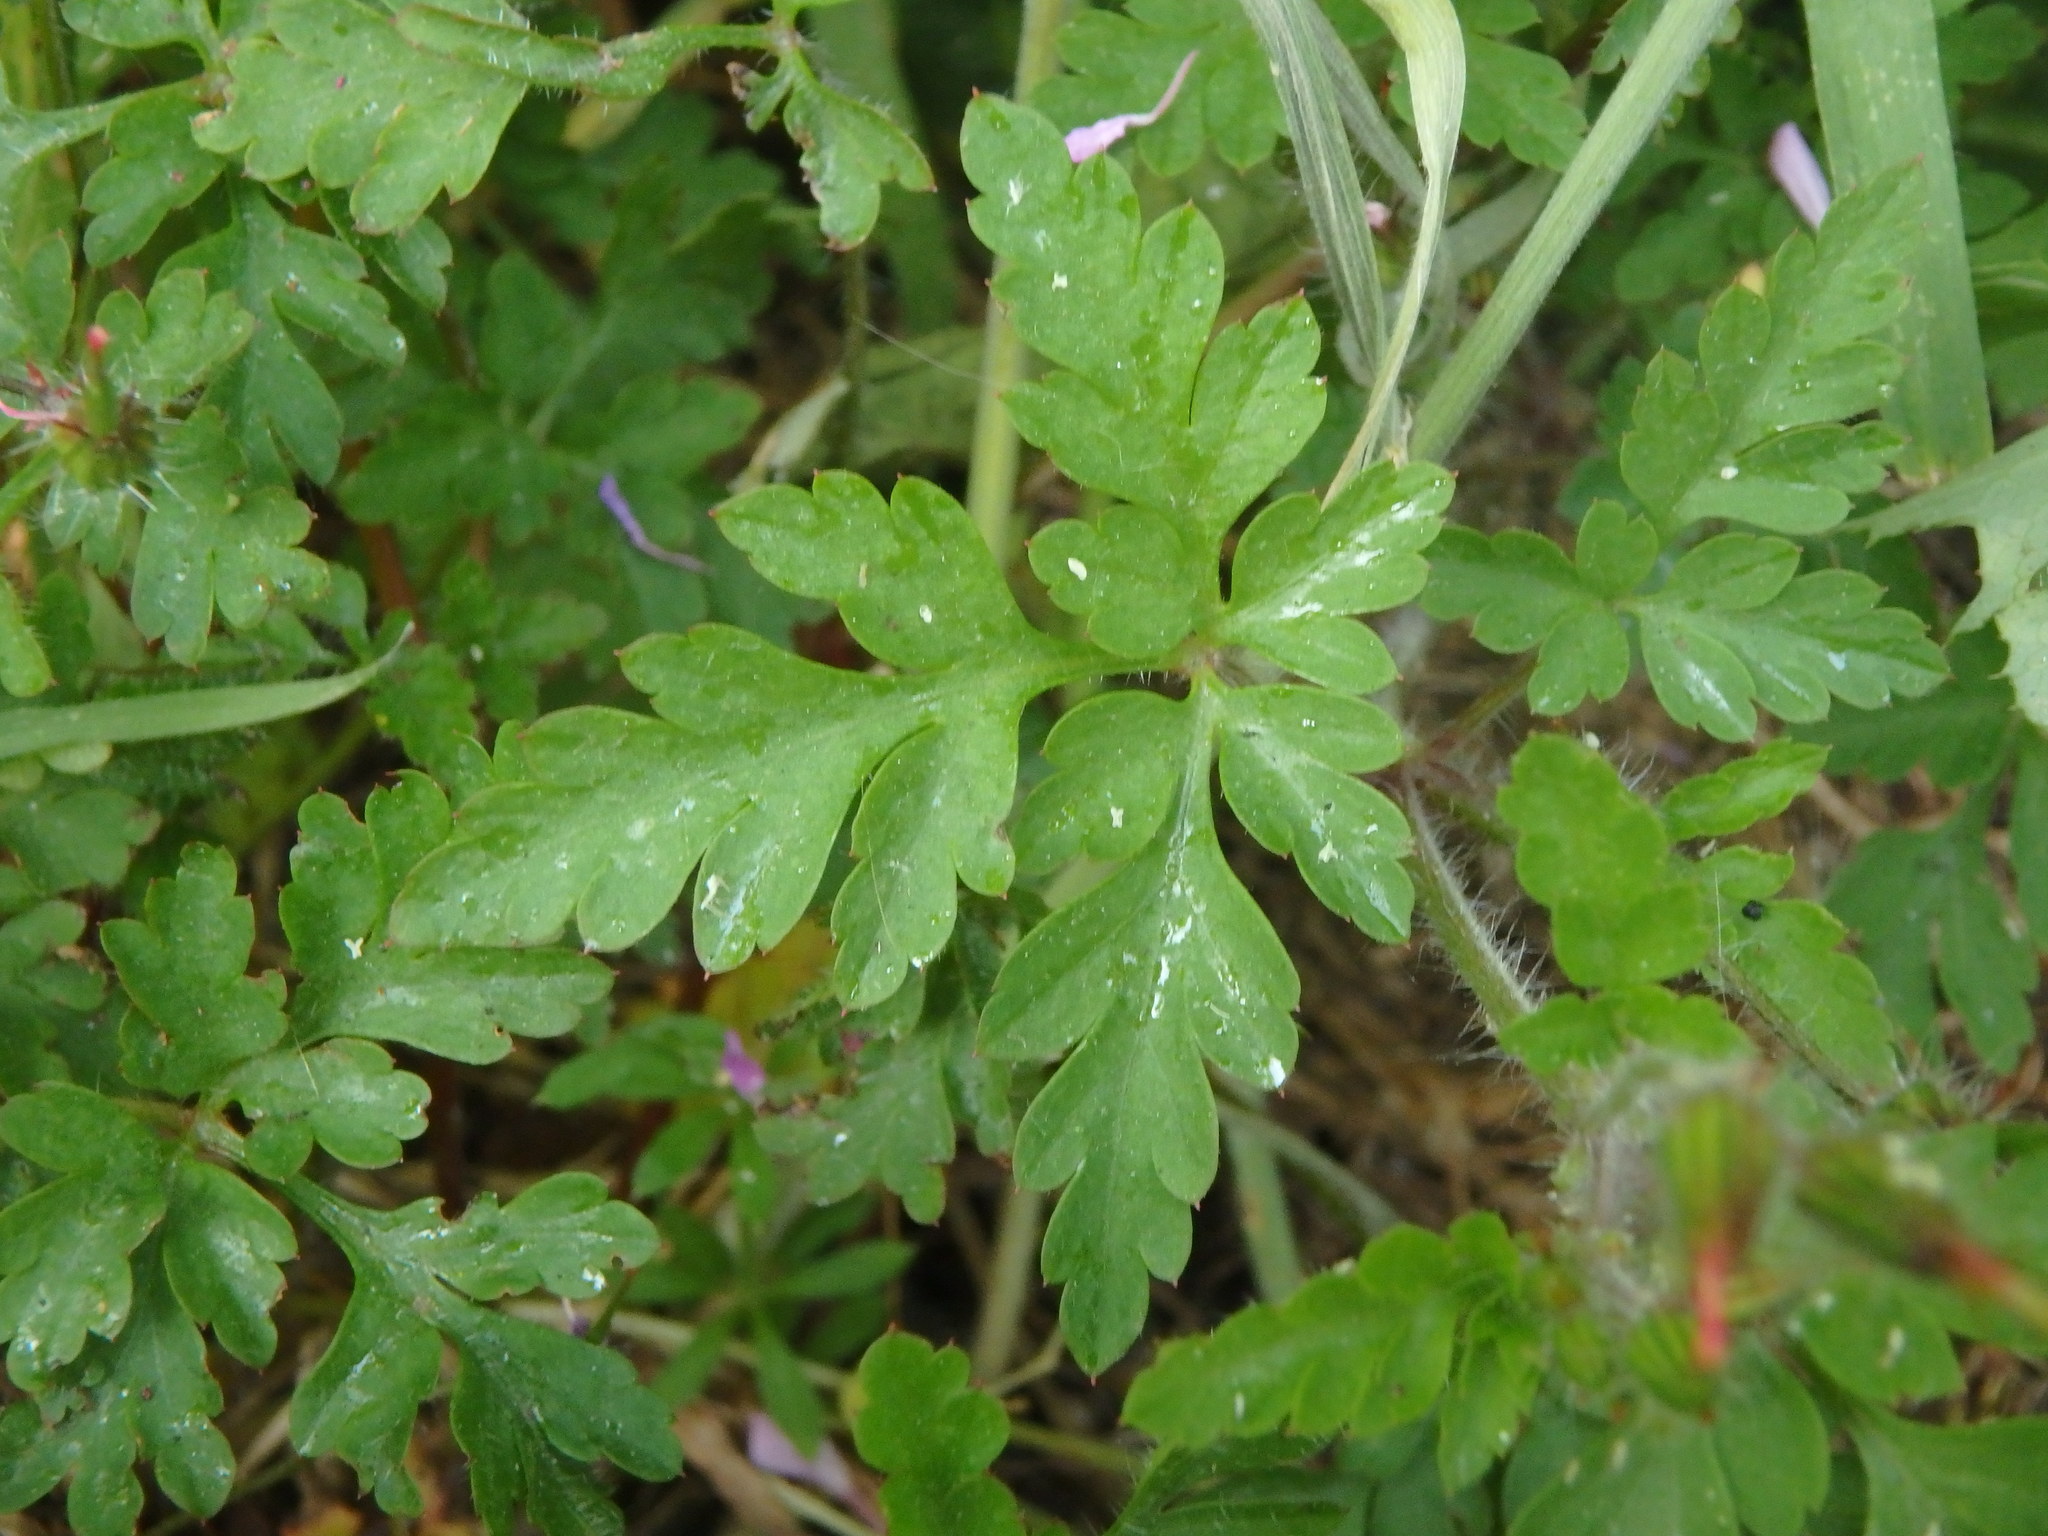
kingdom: Plantae
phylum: Tracheophyta
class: Magnoliopsida
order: Geraniales
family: Geraniaceae
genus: Geranium
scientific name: Geranium robertianum
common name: Herb-robert
